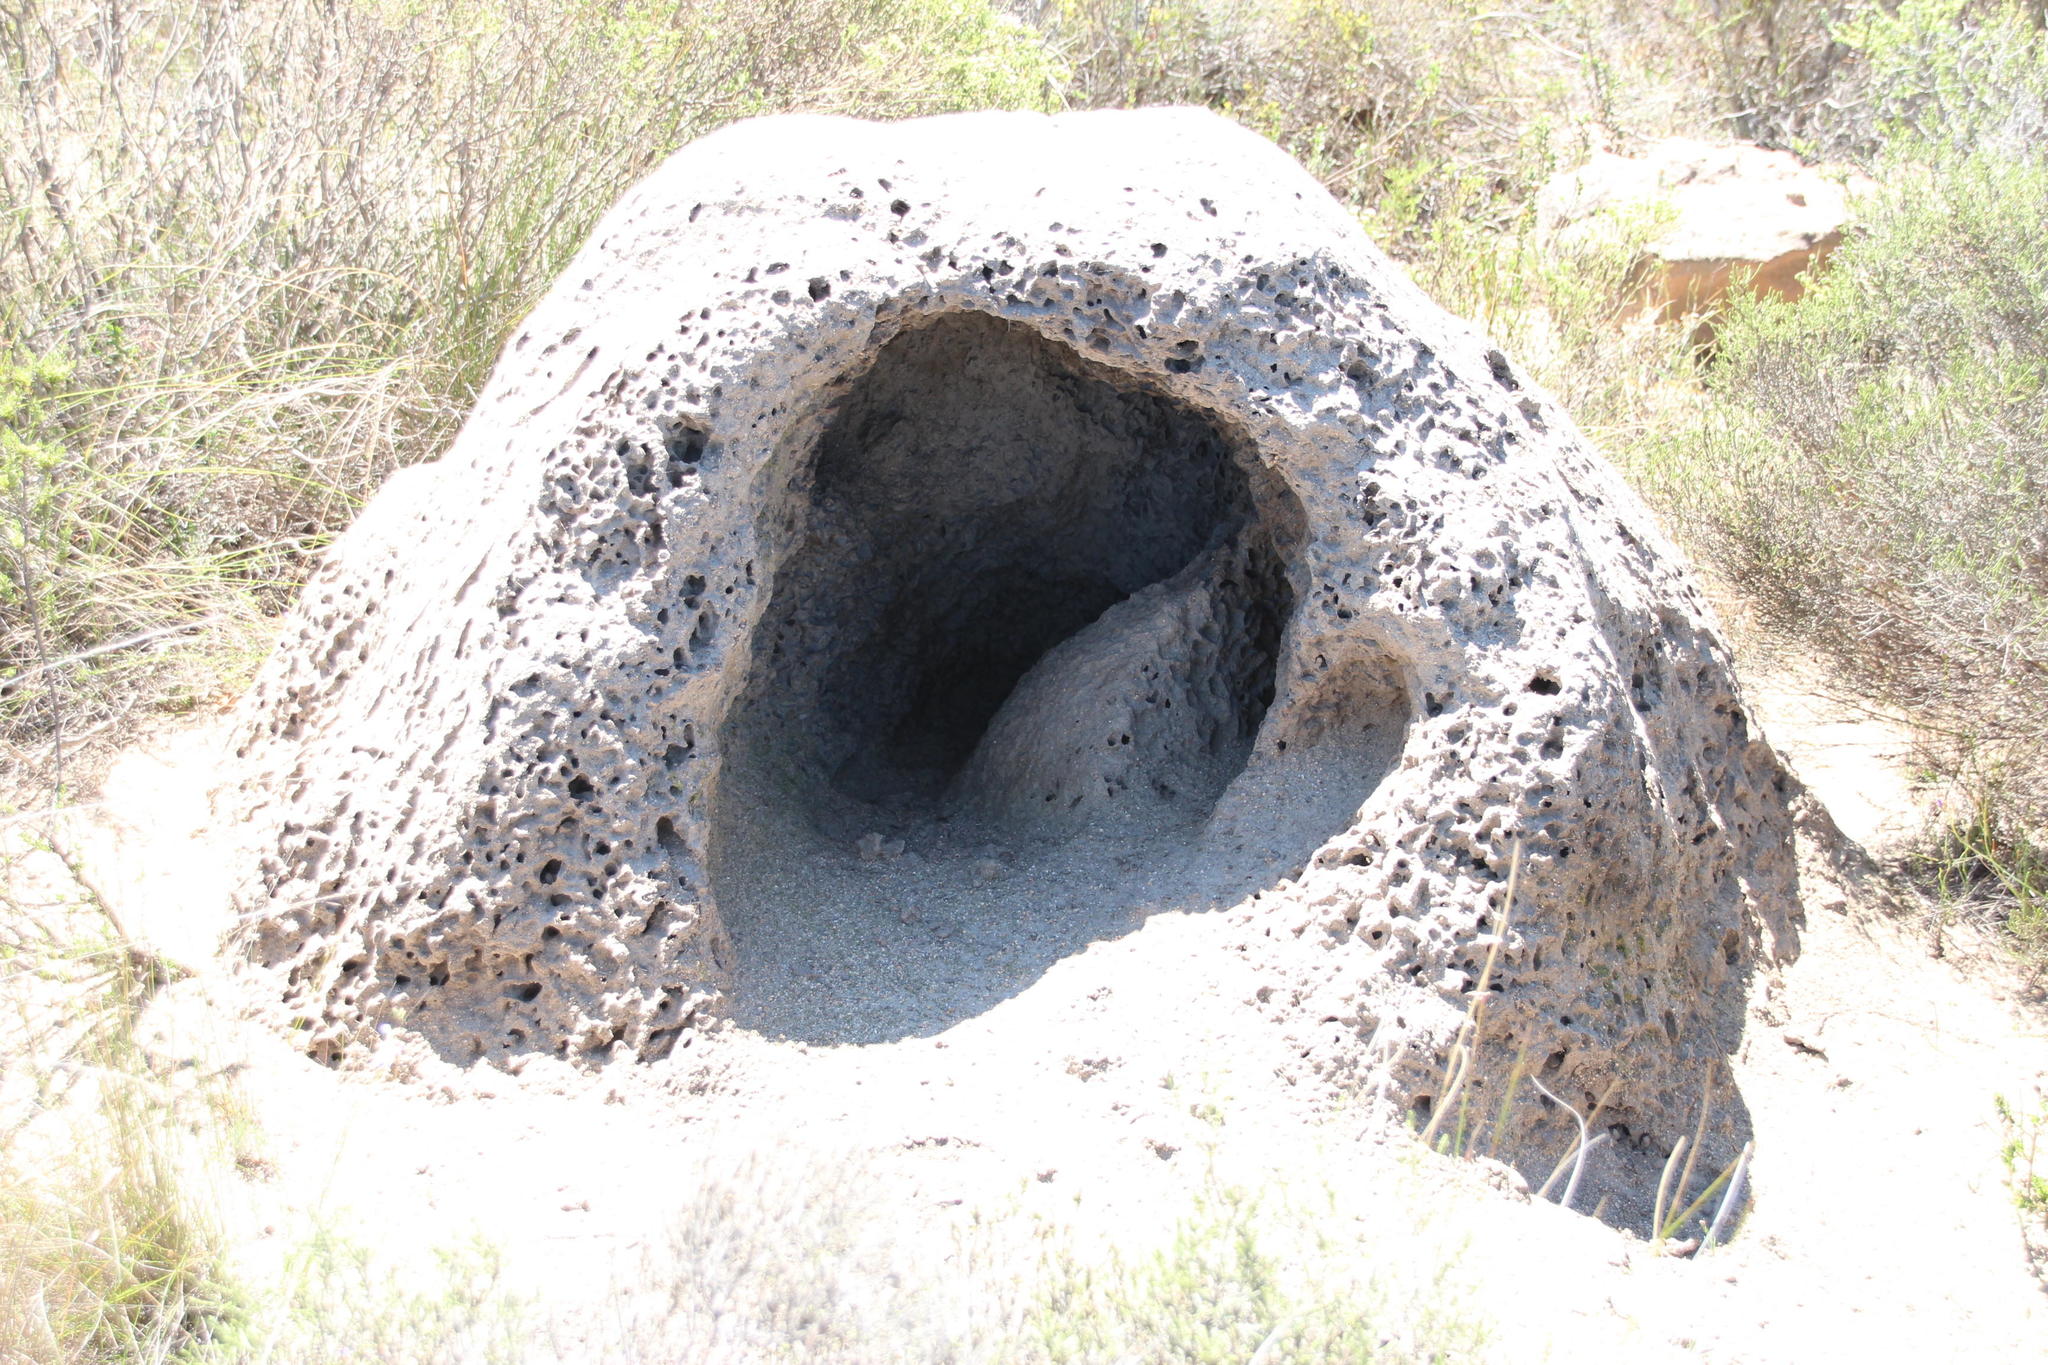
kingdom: Animalia
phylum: Chordata
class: Mammalia
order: Tubulidentata
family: Orycteropodidae
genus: Orycteropus
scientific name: Orycteropus afer
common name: Aardvark
